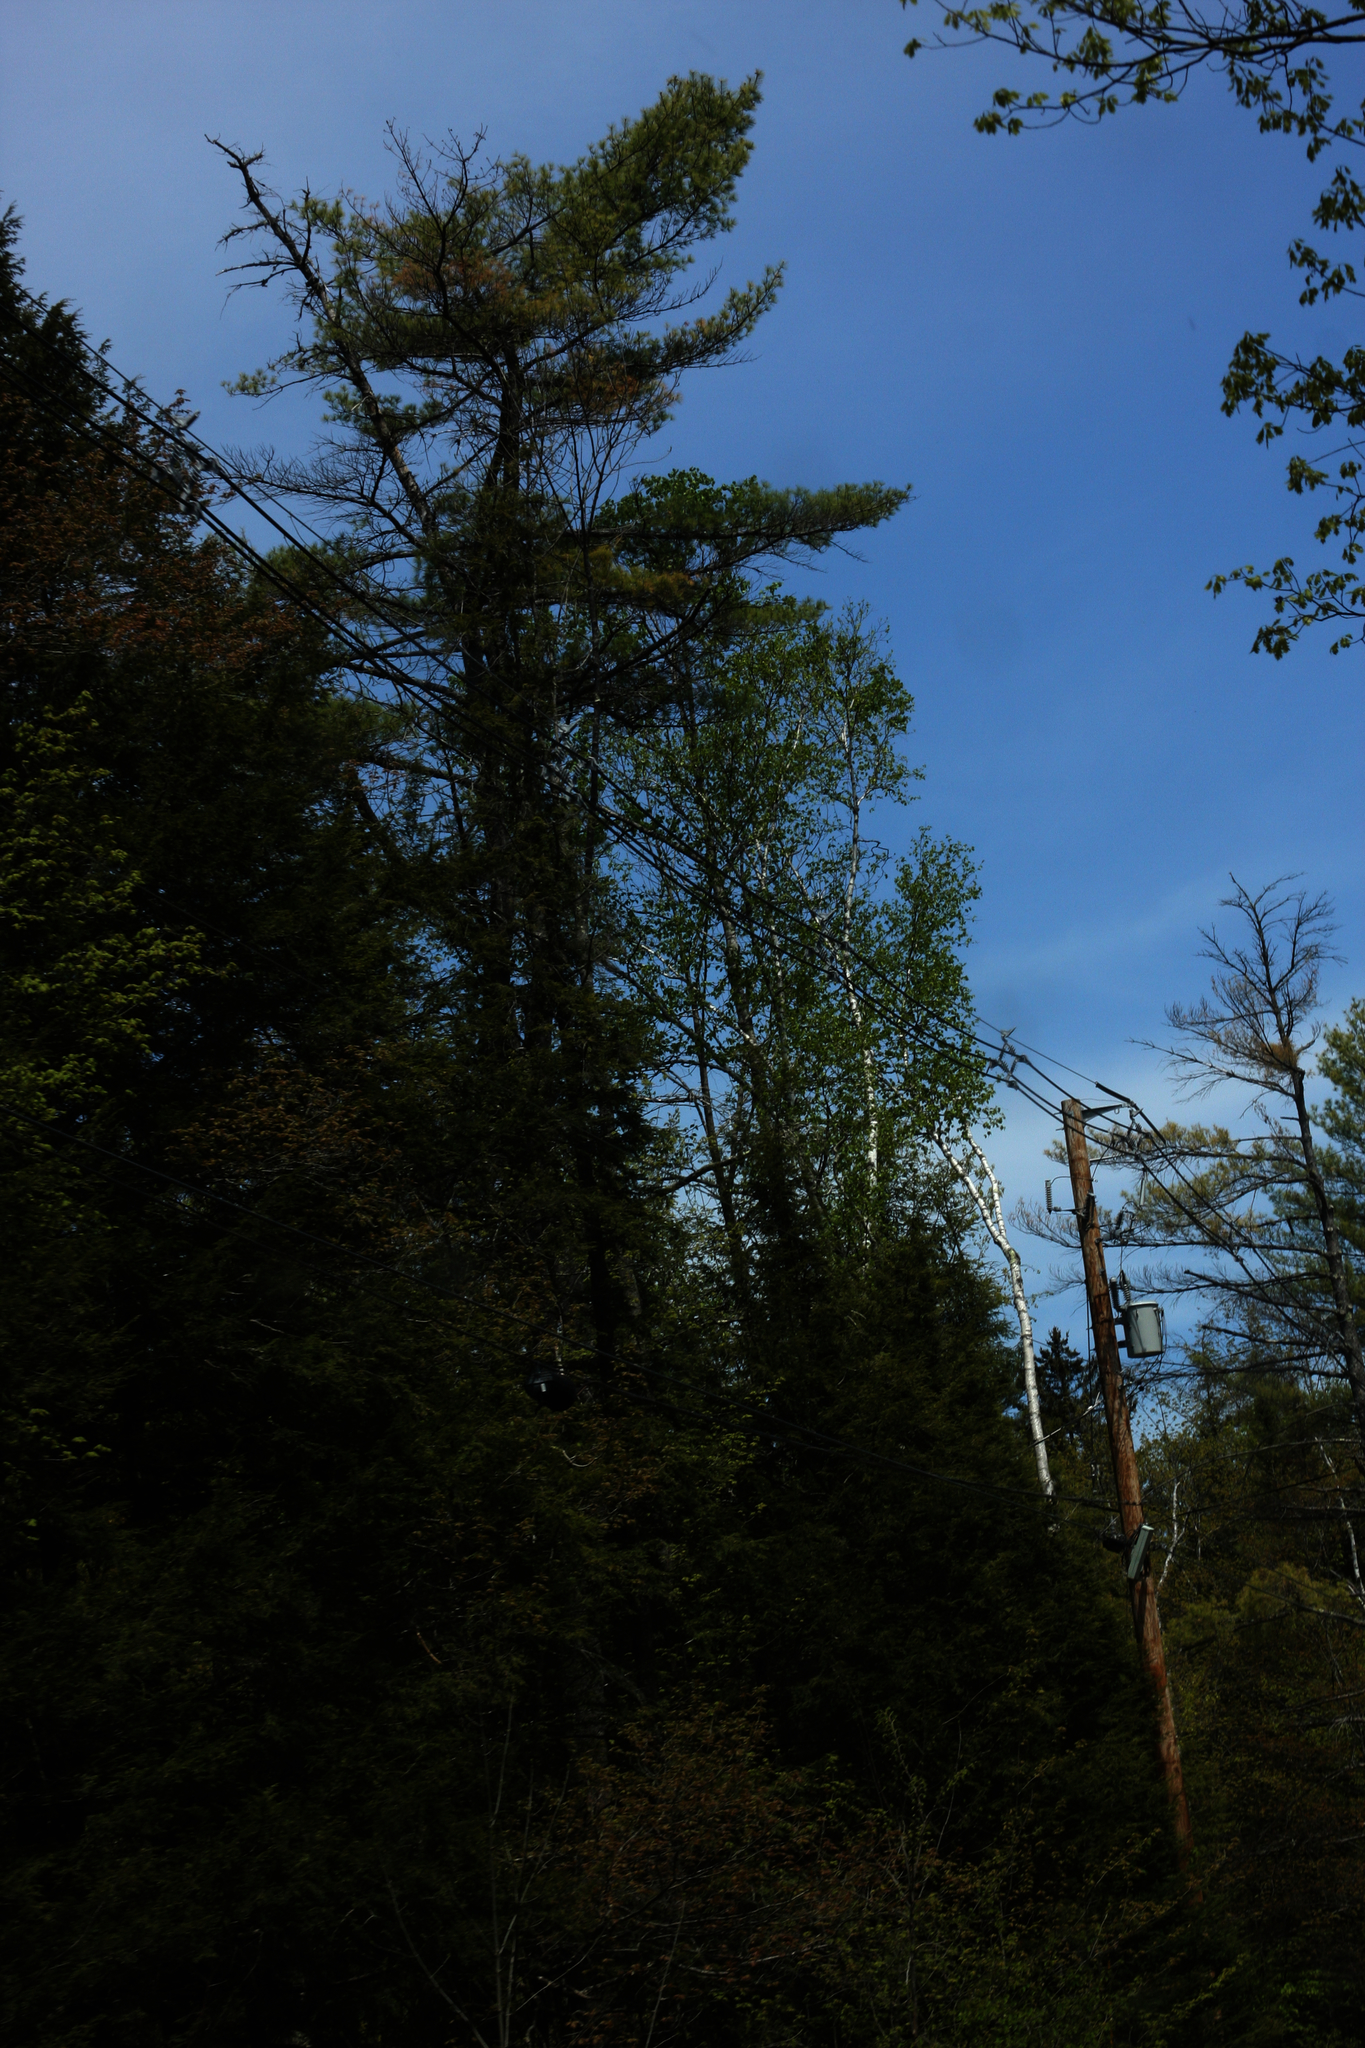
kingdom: Plantae
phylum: Tracheophyta
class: Pinopsida
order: Pinales
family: Pinaceae
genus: Pinus
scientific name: Pinus strobus
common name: Weymouth pine
